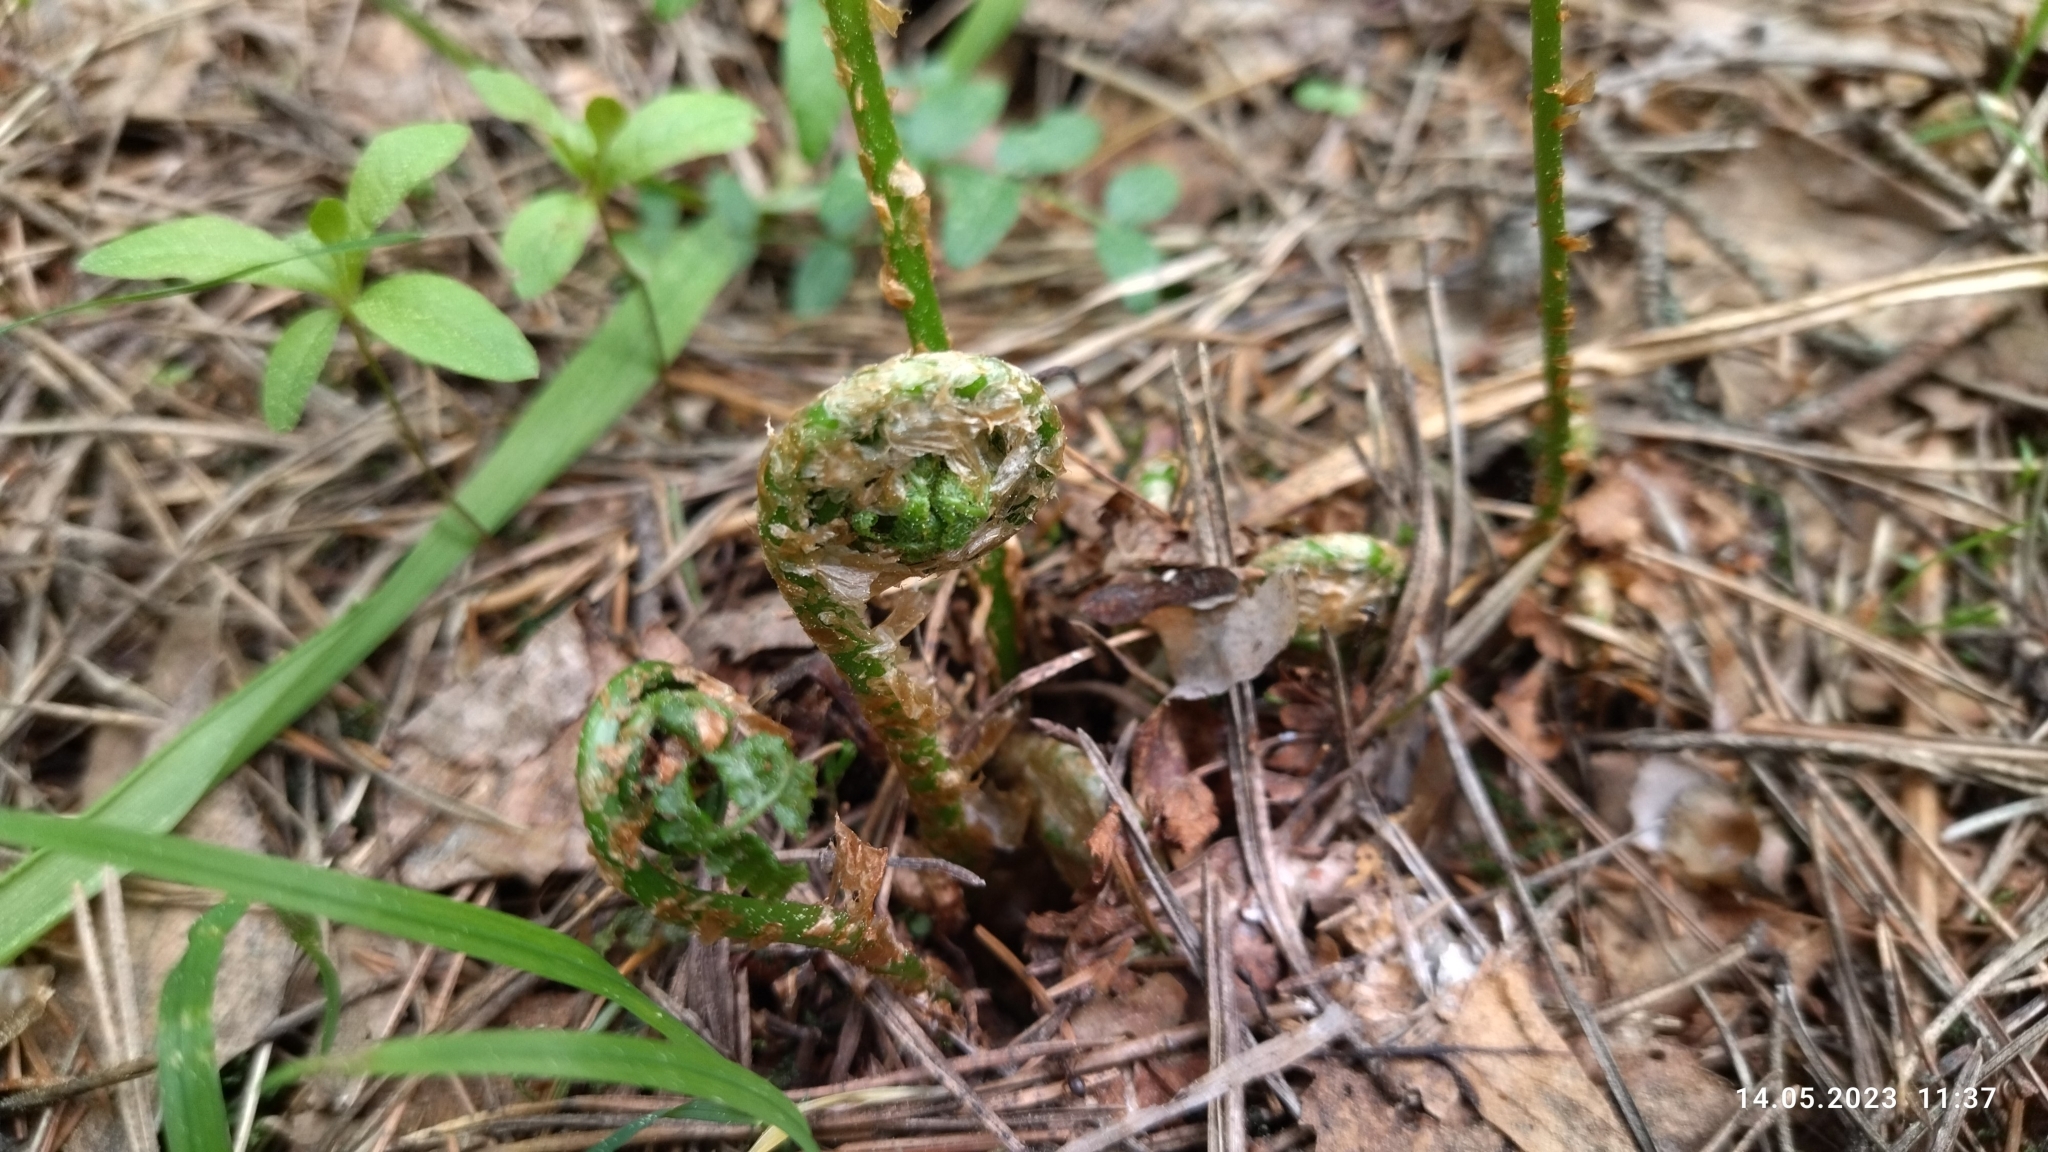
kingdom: Plantae
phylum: Tracheophyta
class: Polypodiopsida
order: Polypodiales
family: Dennstaedtiaceae
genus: Pteridium
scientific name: Pteridium aquilinum
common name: Bracken
